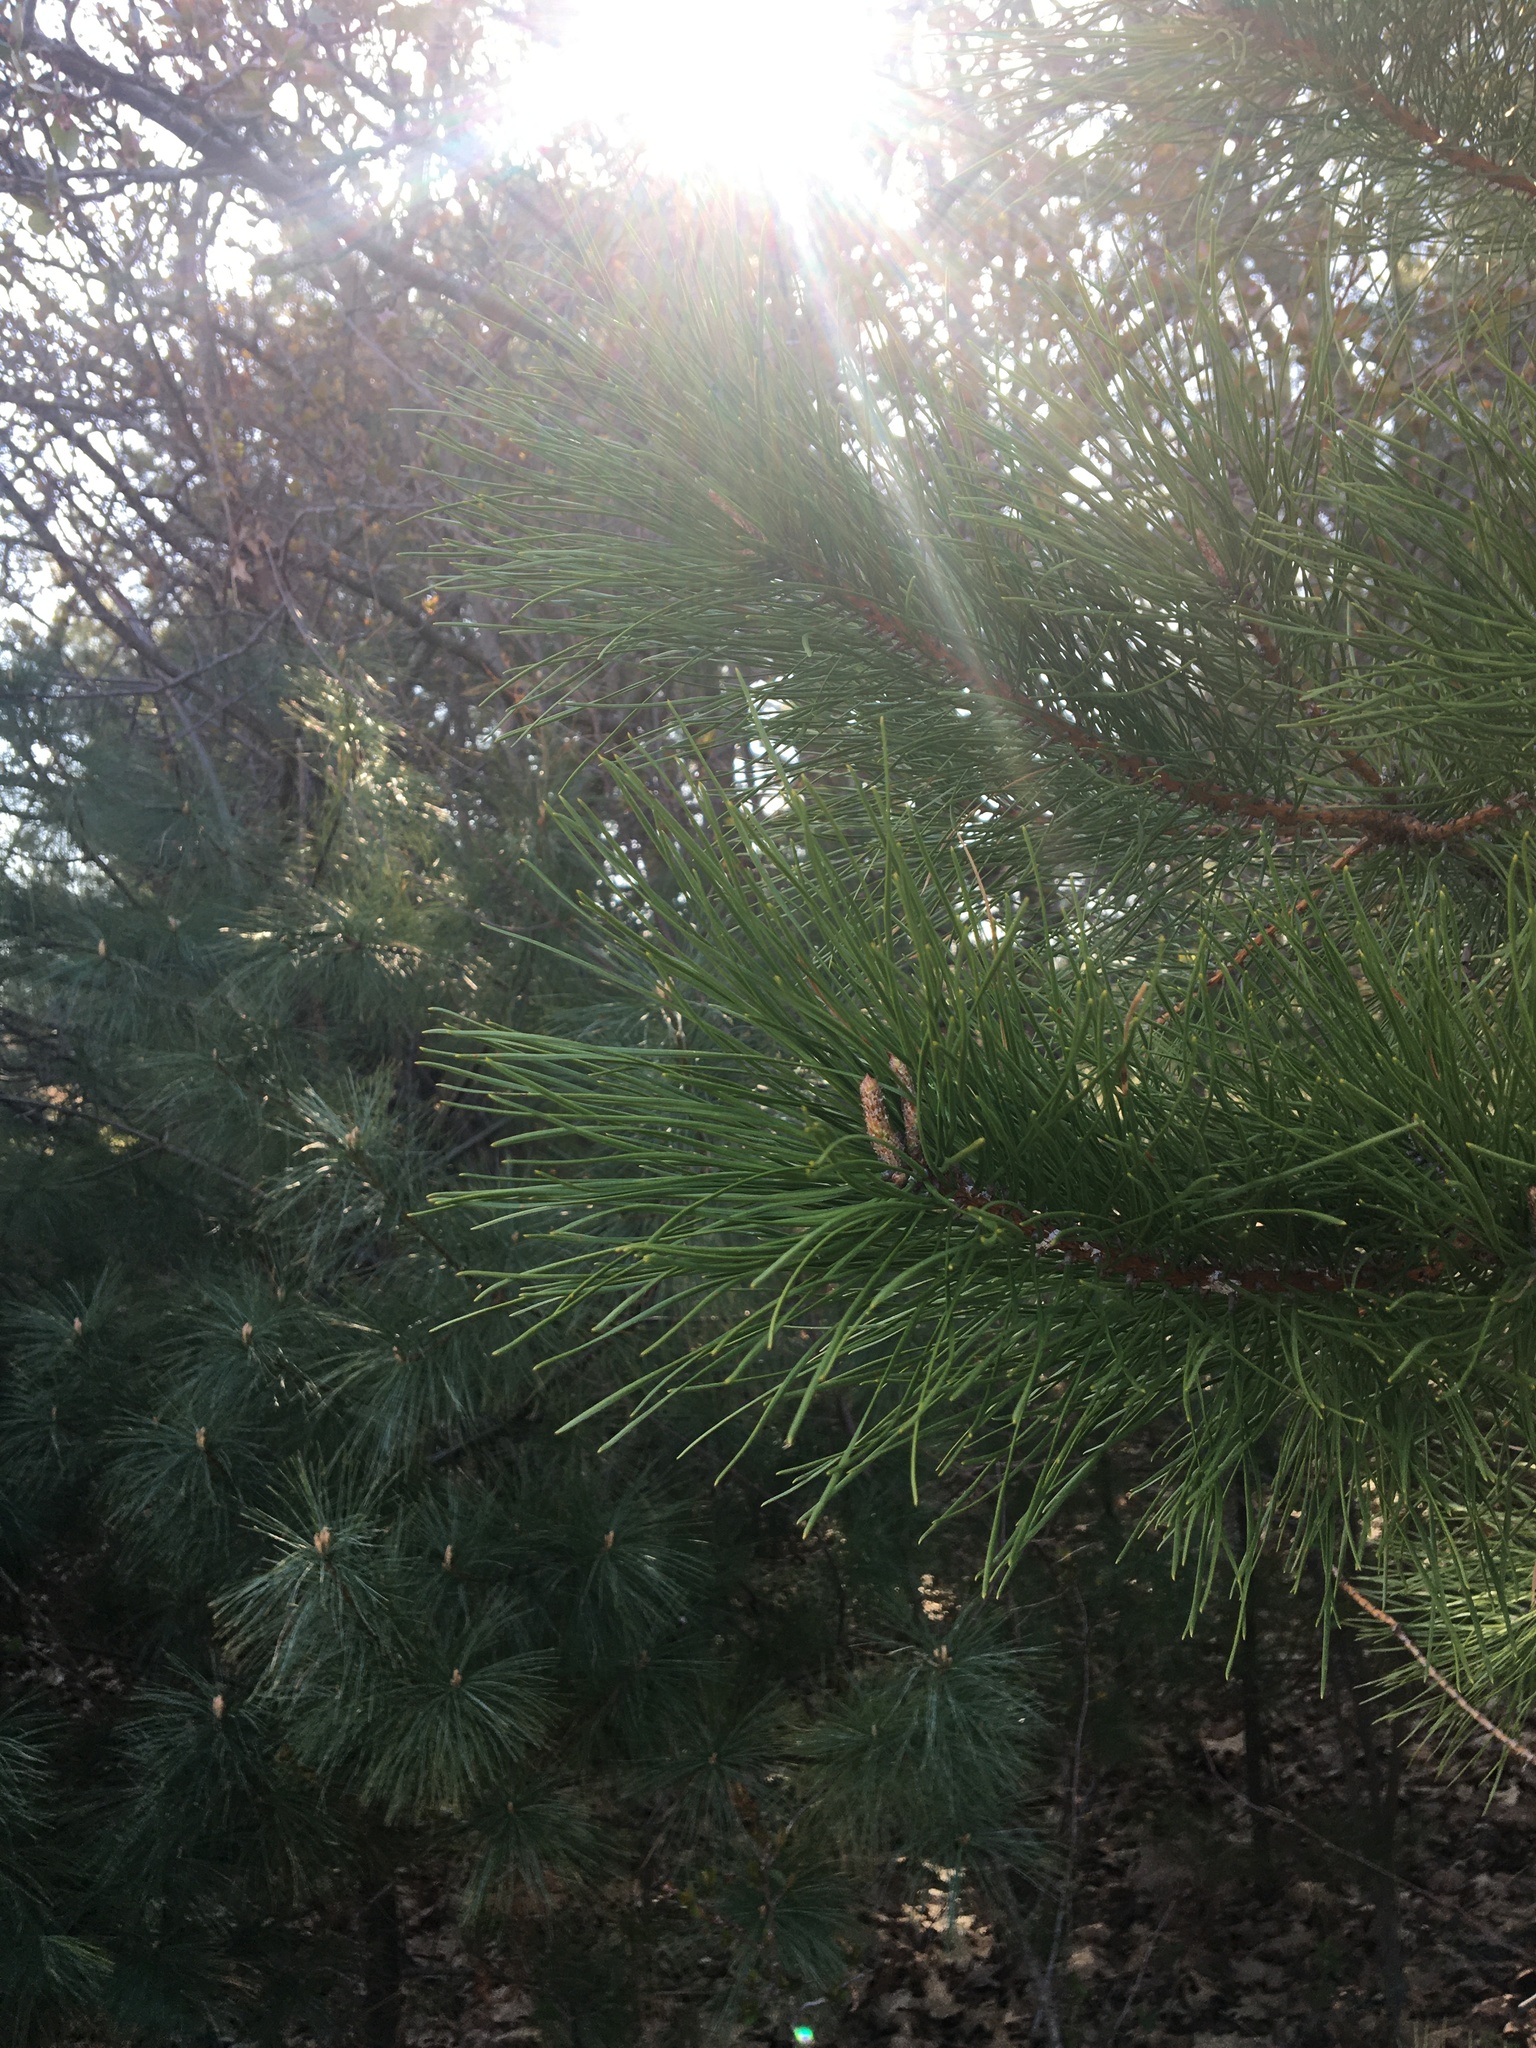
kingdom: Plantae
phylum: Tracheophyta
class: Pinopsida
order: Pinales
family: Pinaceae
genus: Pinus
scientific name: Pinus rigida
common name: Pitch pine
